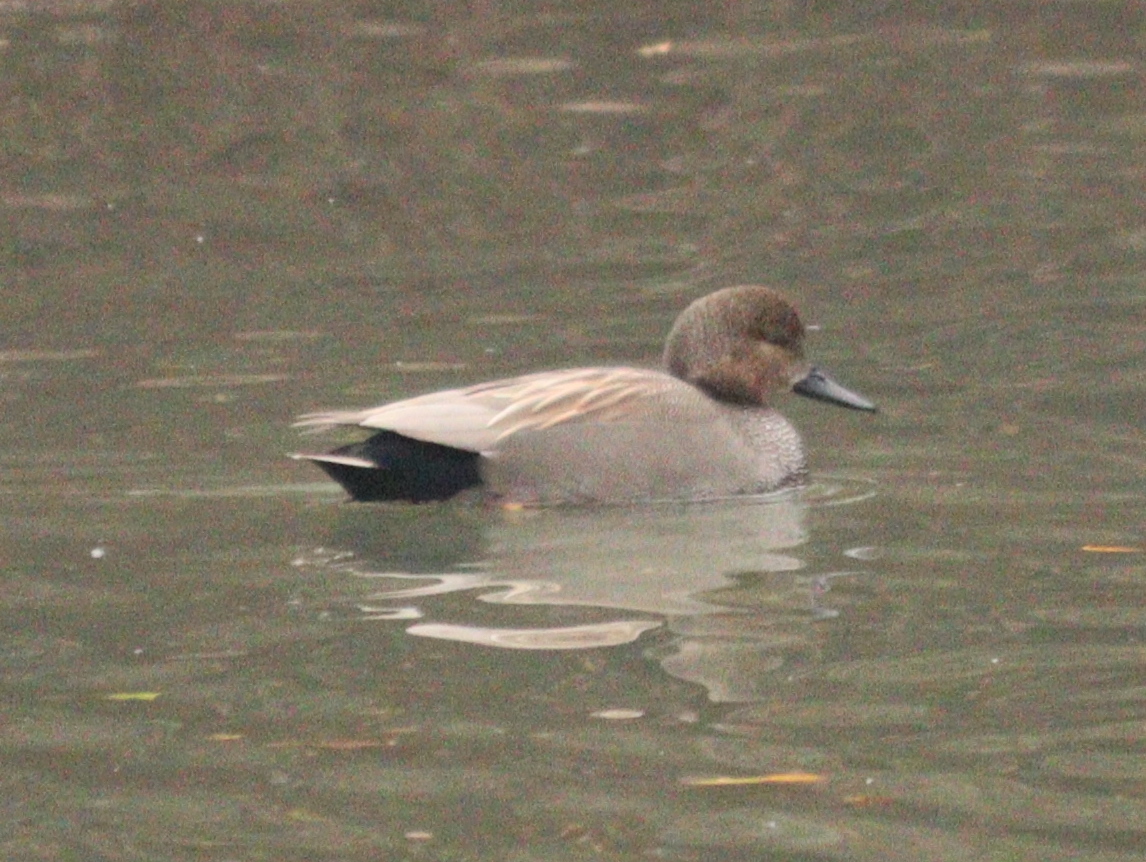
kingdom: Animalia
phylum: Chordata
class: Aves
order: Anseriformes
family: Anatidae
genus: Mareca
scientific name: Mareca strepera
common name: Gadwall
